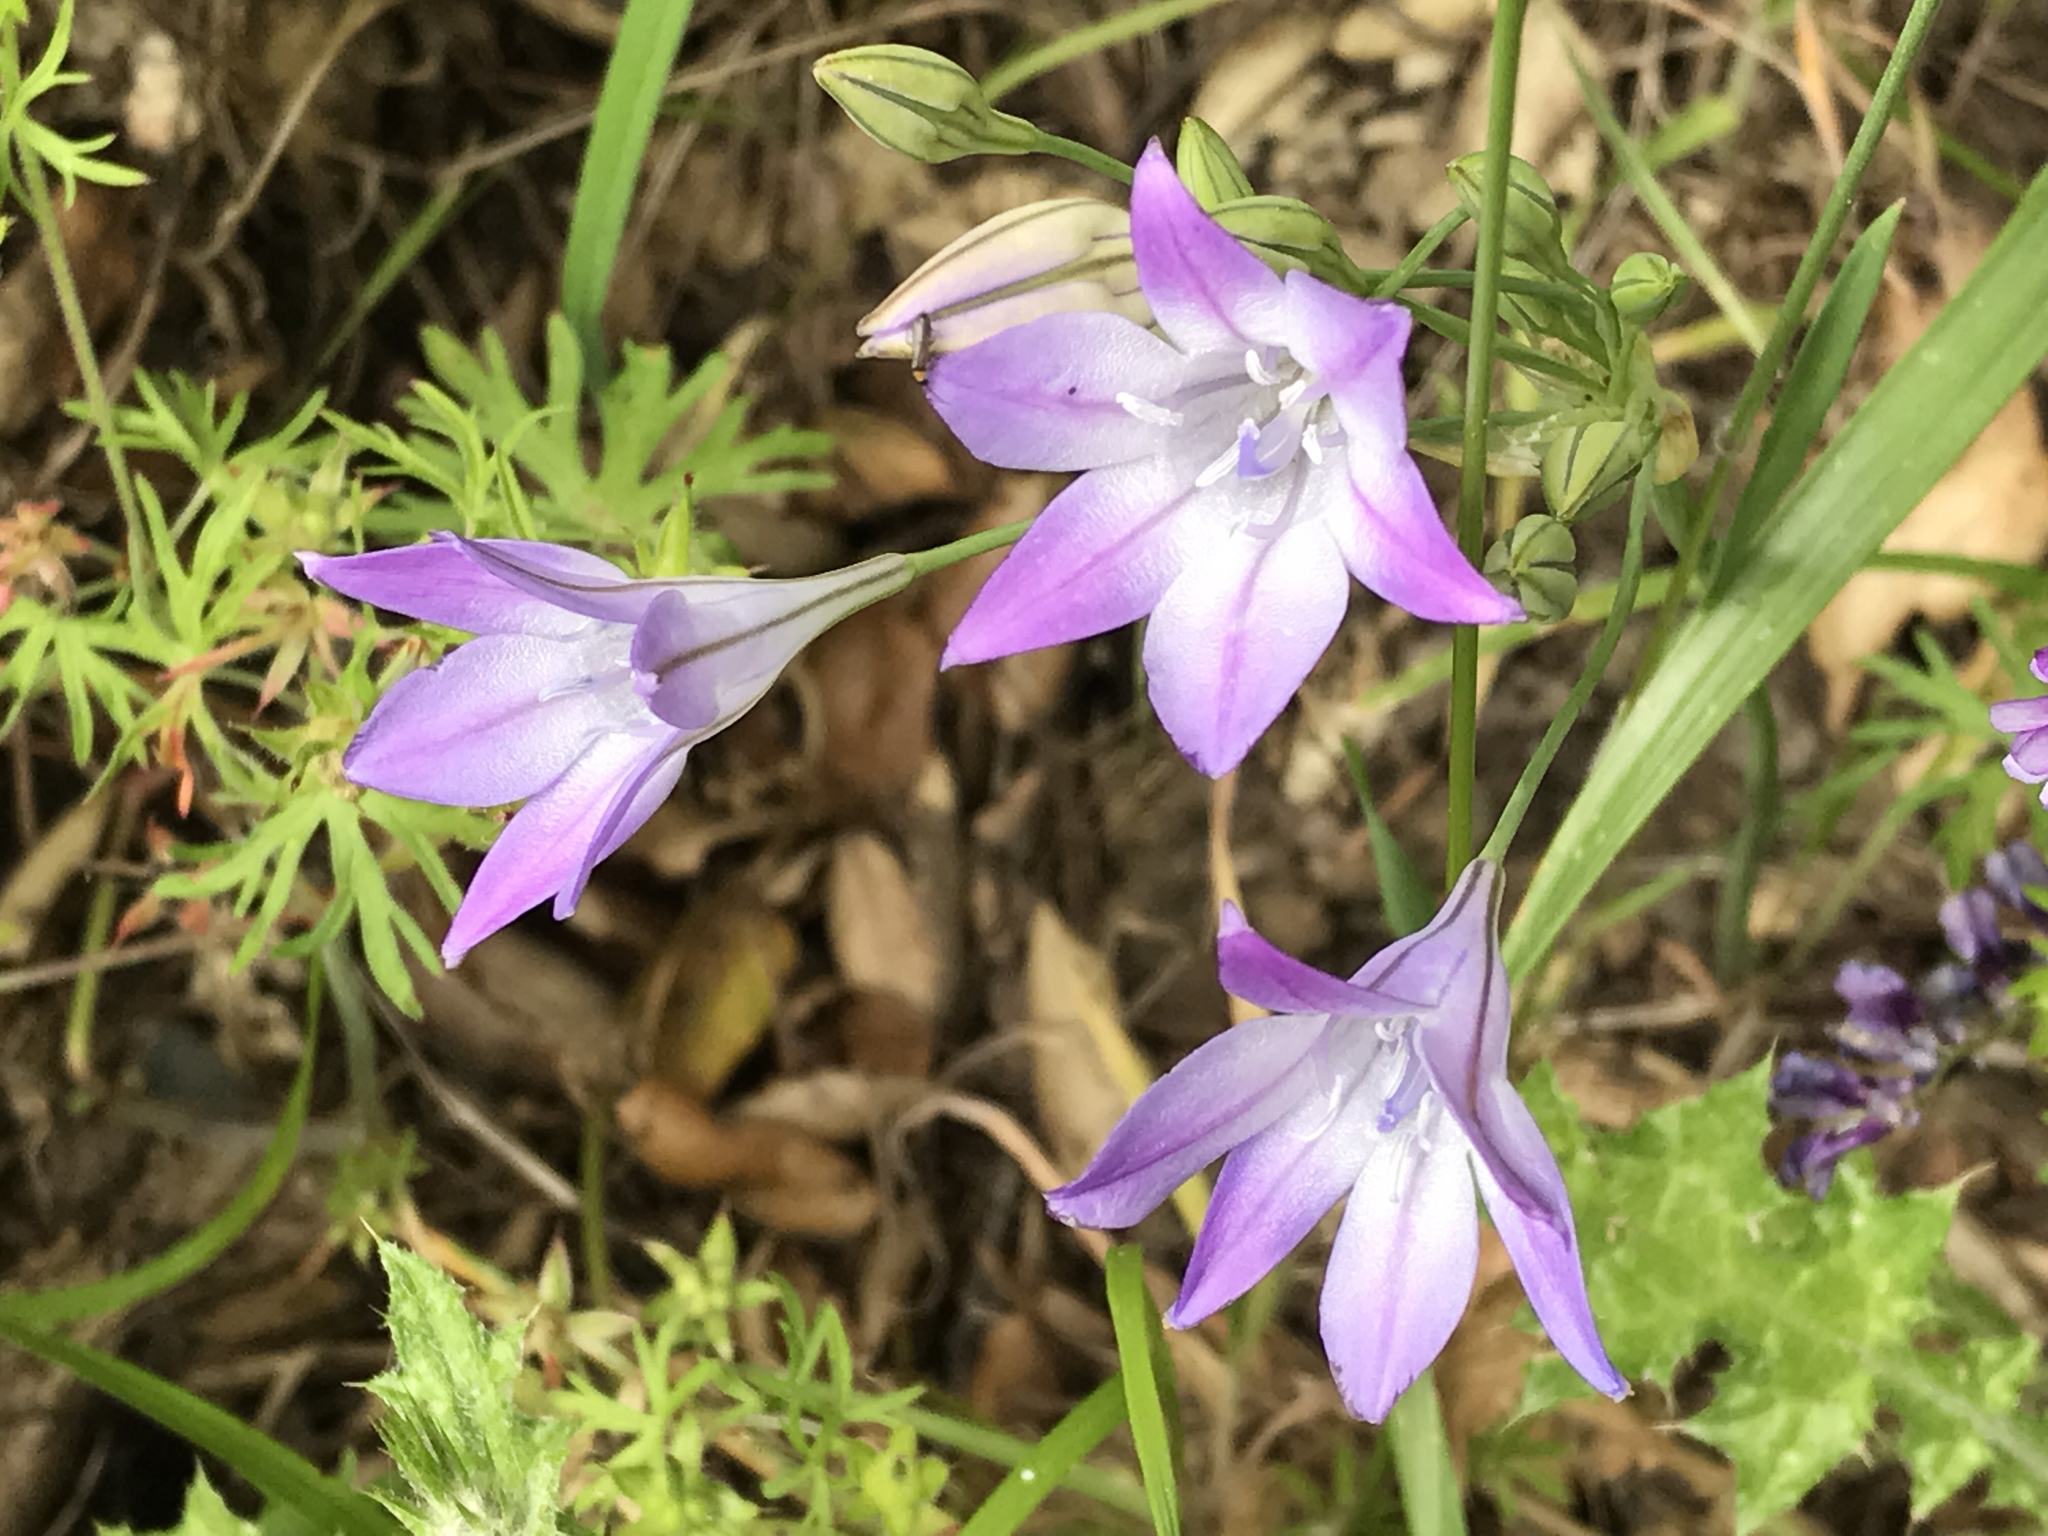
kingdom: Plantae
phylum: Tracheophyta
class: Liliopsida
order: Asparagales
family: Asparagaceae
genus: Triteleia
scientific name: Triteleia laxa
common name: Triplet-lily
